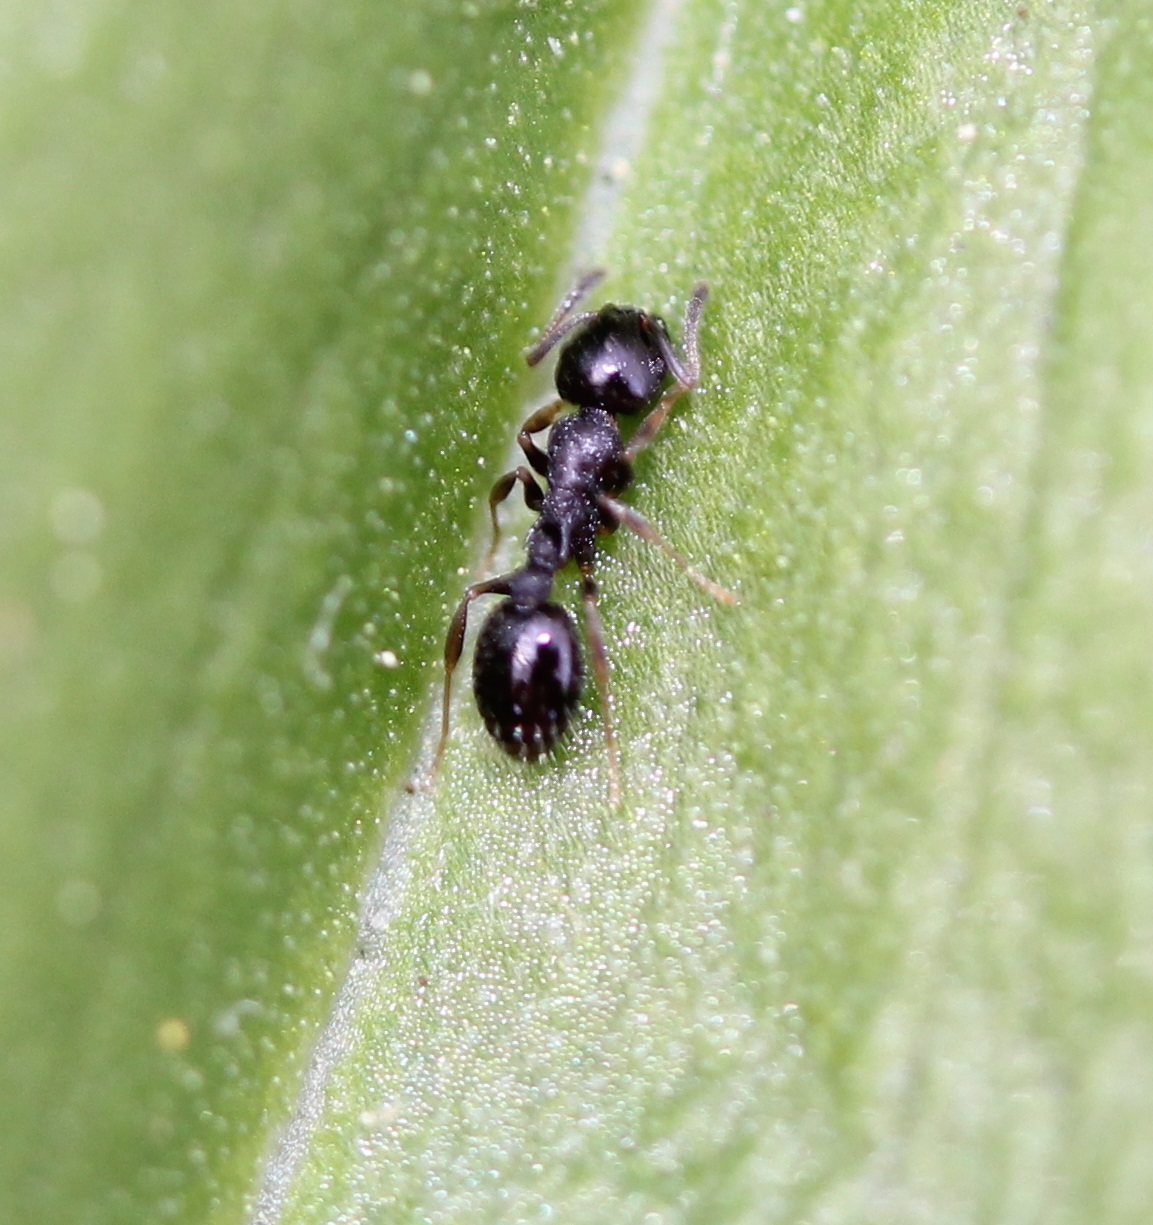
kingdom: Animalia
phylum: Arthropoda
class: Insecta
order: Hymenoptera
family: Formicidae
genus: Temnothorax
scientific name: Temnothorax longispinosus
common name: Long-spined acorn ant
